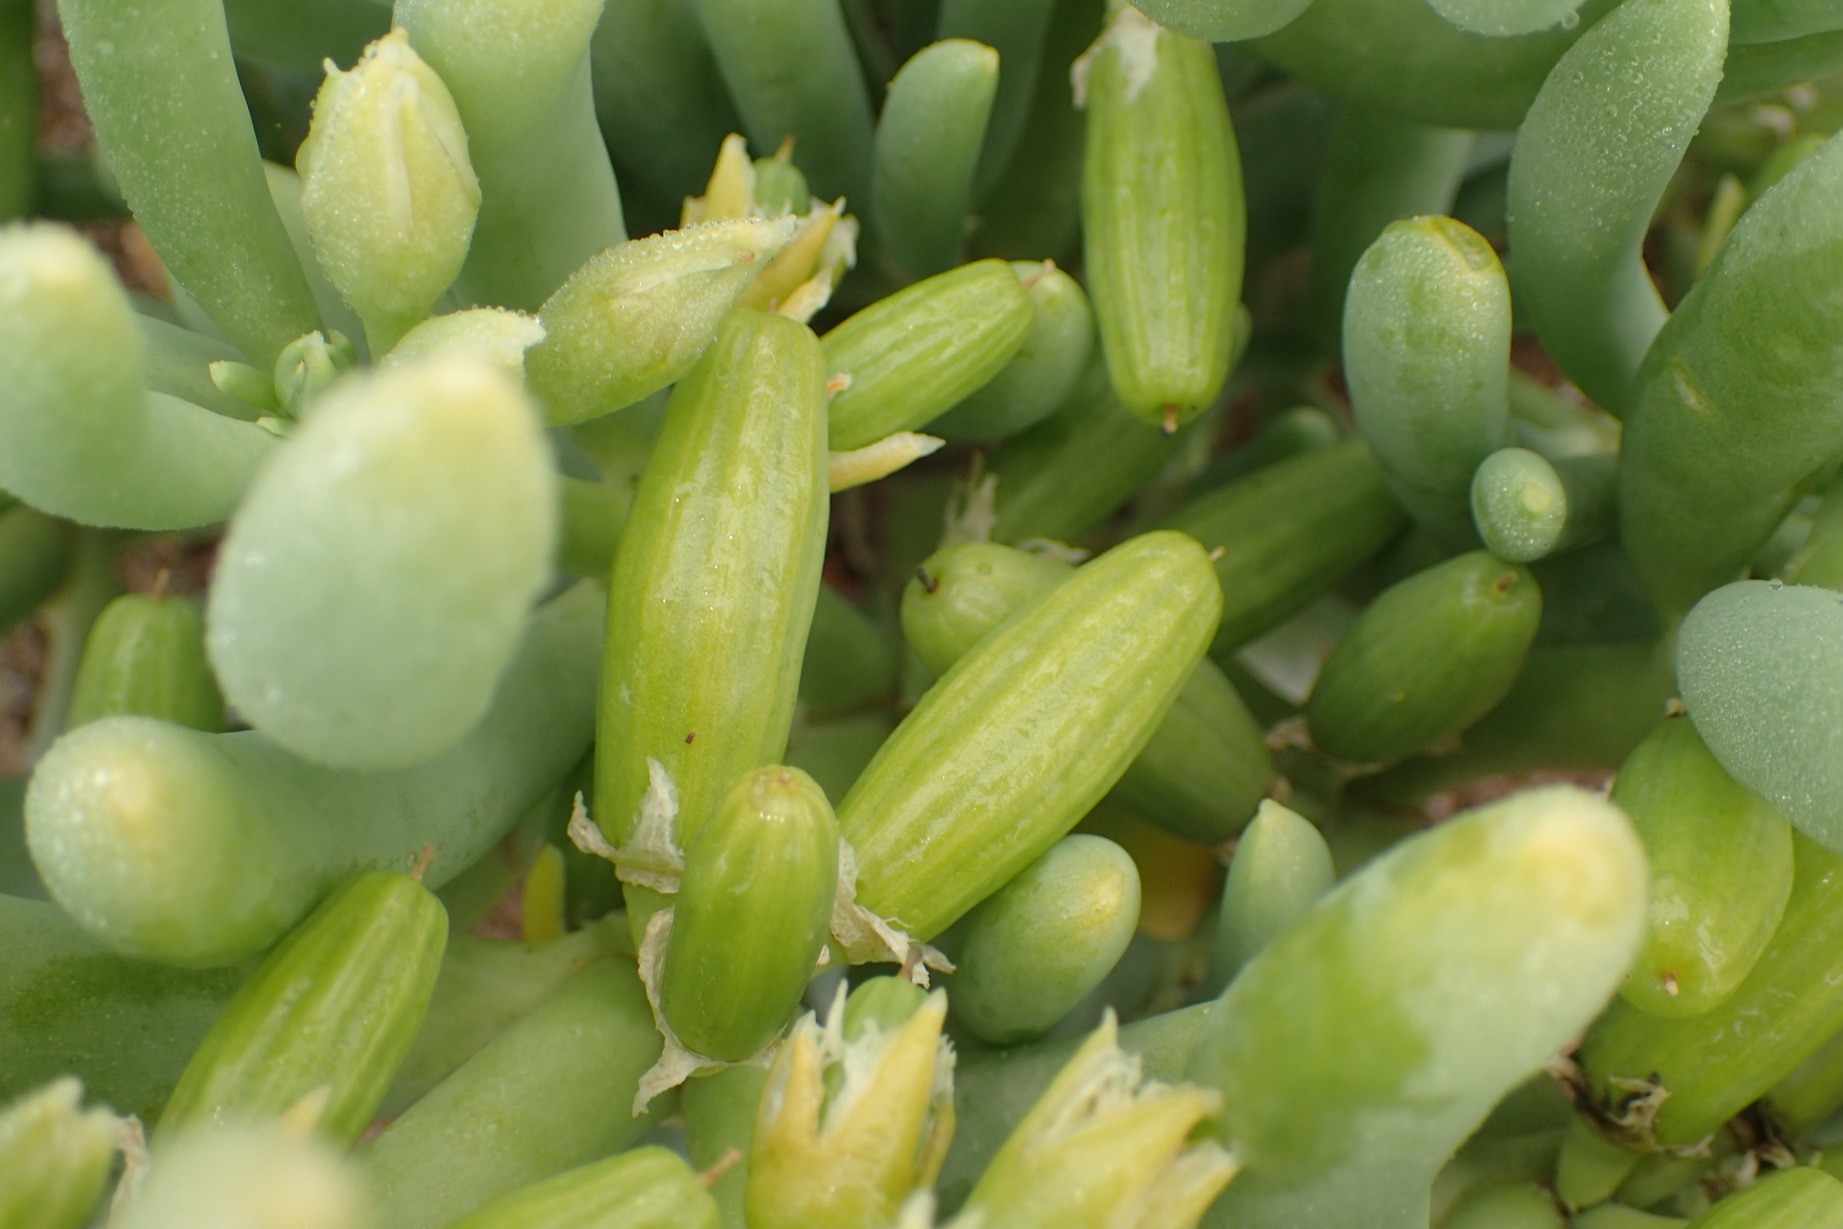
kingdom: Plantae
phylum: Tracheophyta
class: Magnoliopsida
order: Zygophyllales
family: Zygophyllaceae
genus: Augea
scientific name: Augea capensis
